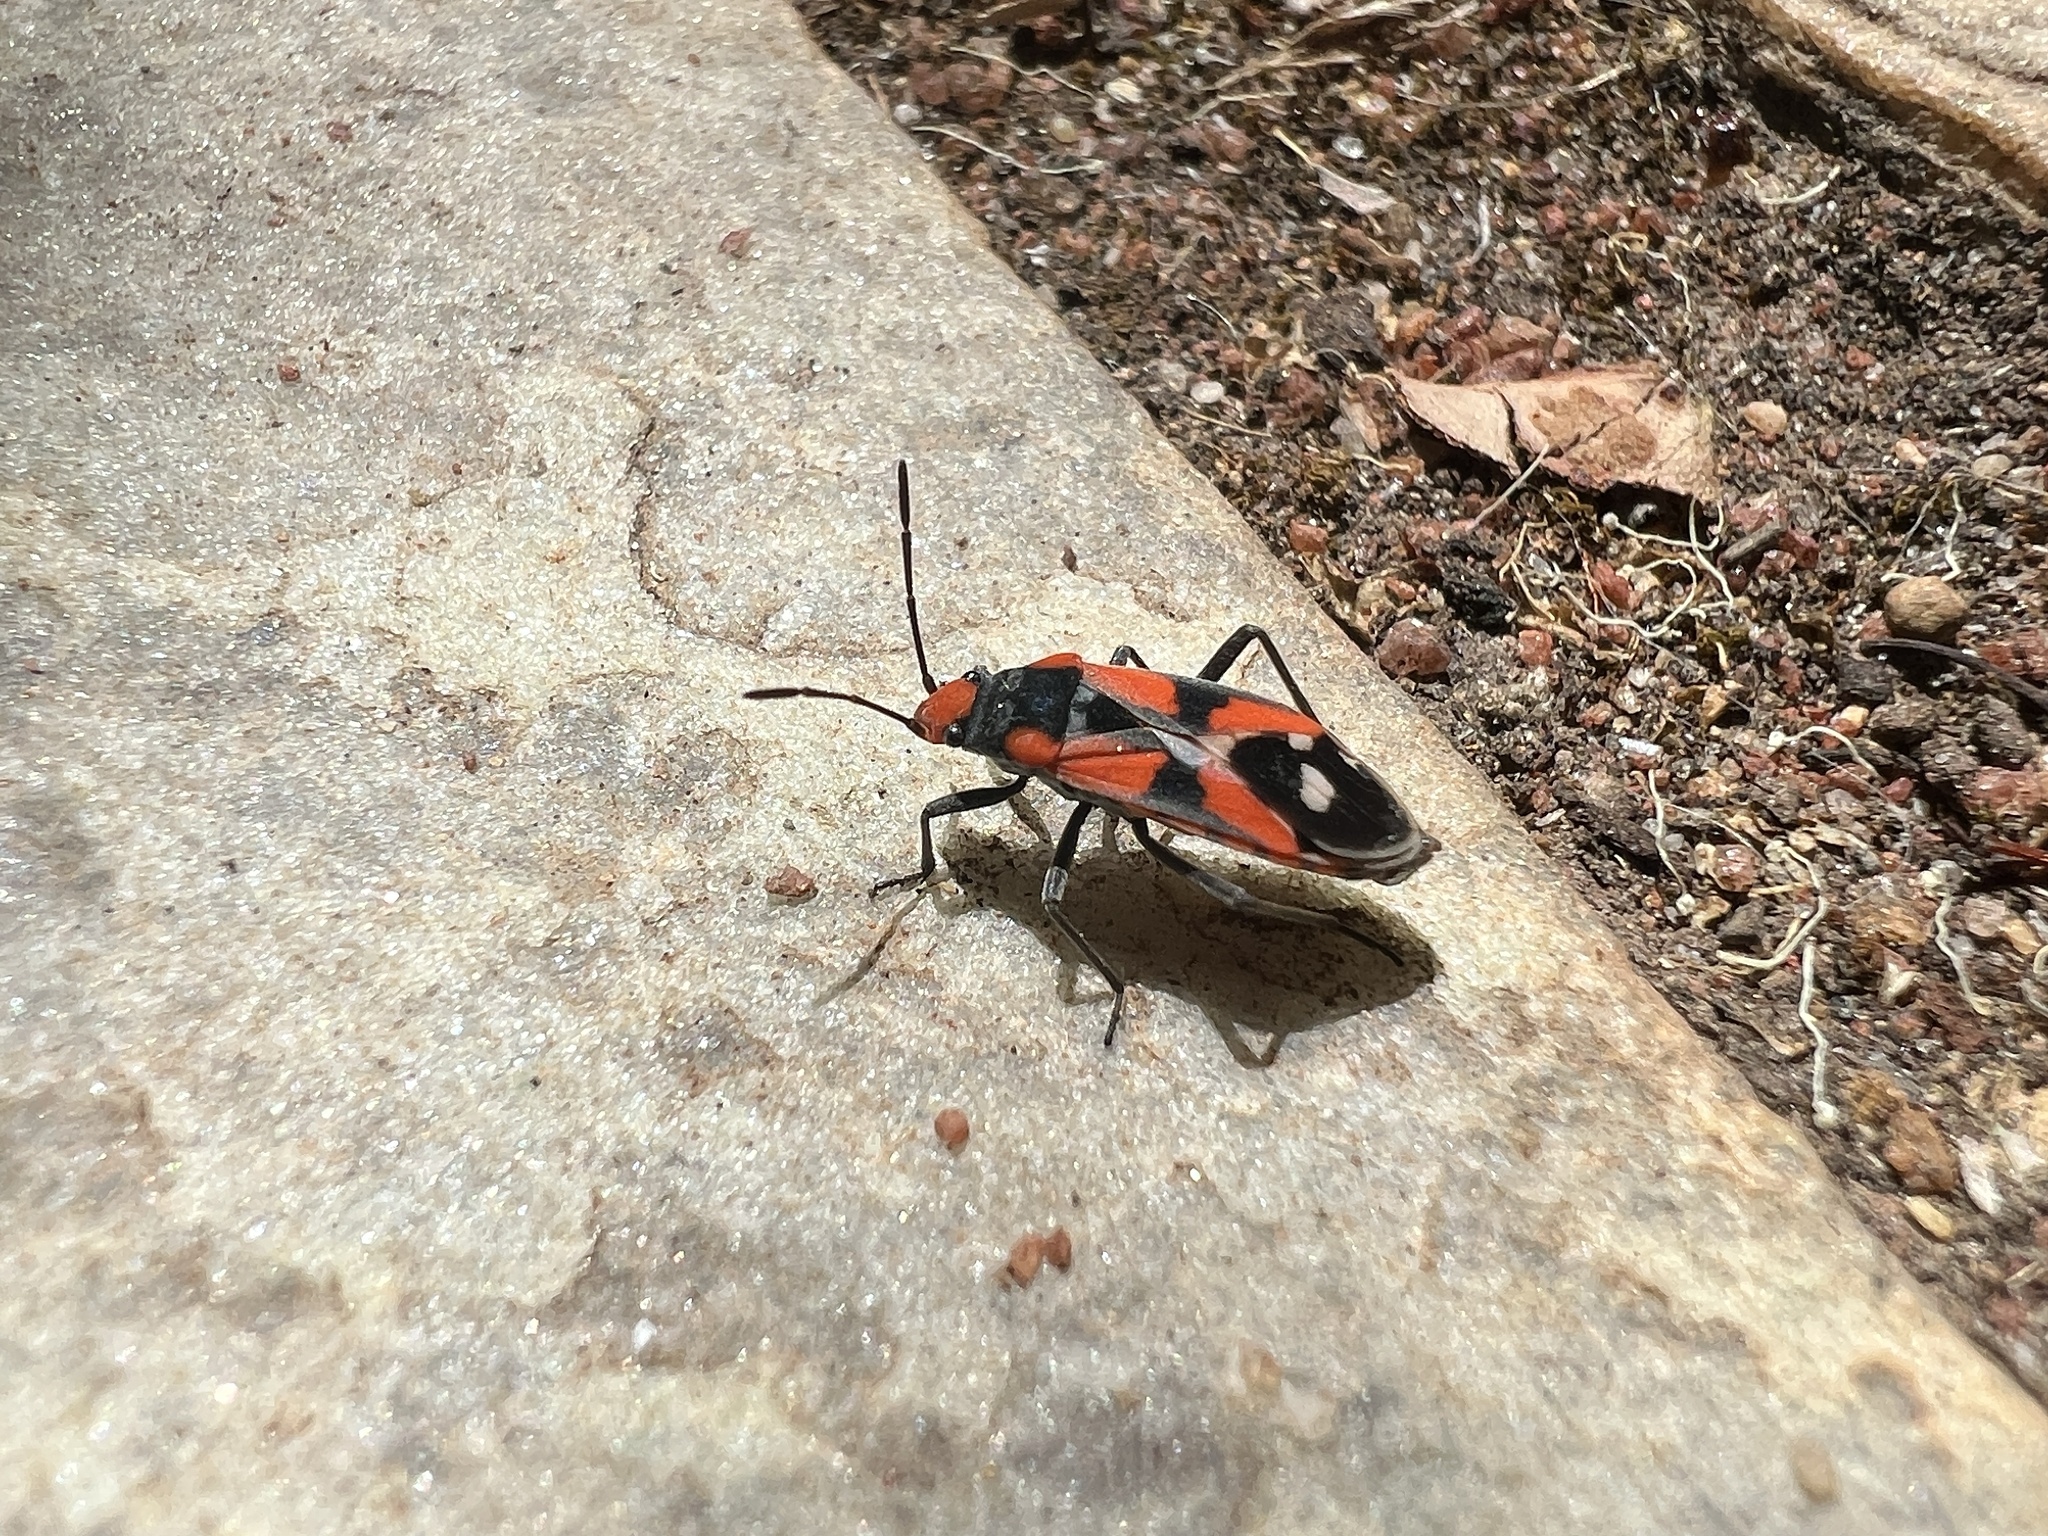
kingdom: Animalia
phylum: Arthropoda
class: Insecta
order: Hemiptera
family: Lygaeidae
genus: Melanerythrus
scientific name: Melanerythrus mactans
